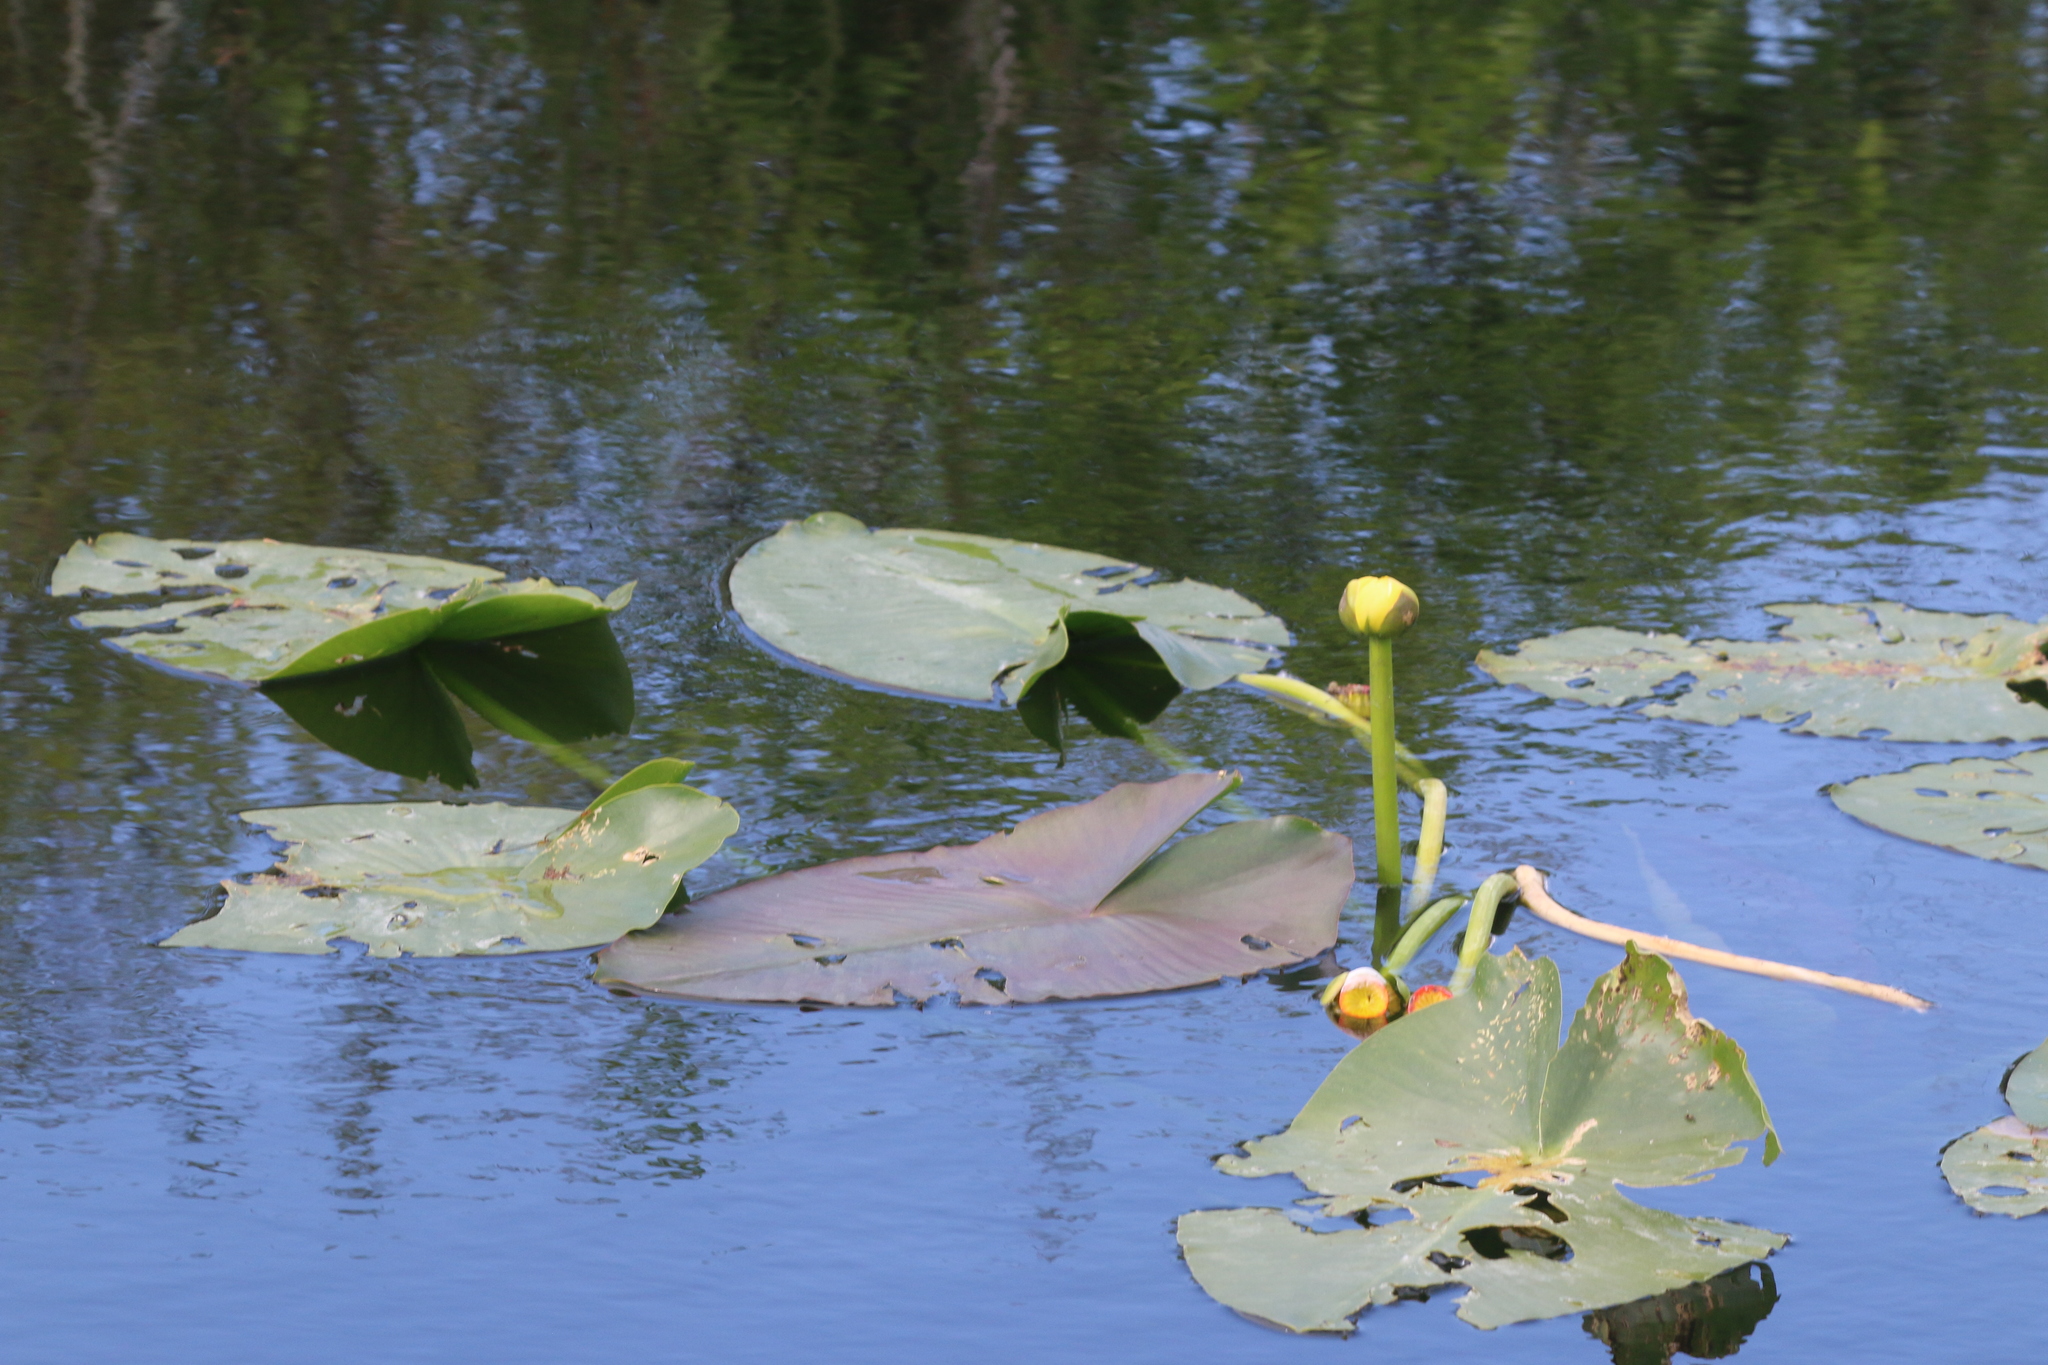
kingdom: Plantae
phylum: Tracheophyta
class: Magnoliopsida
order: Nymphaeales
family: Nymphaeaceae
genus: Nuphar
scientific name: Nuphar advena
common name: Spatter-dock
